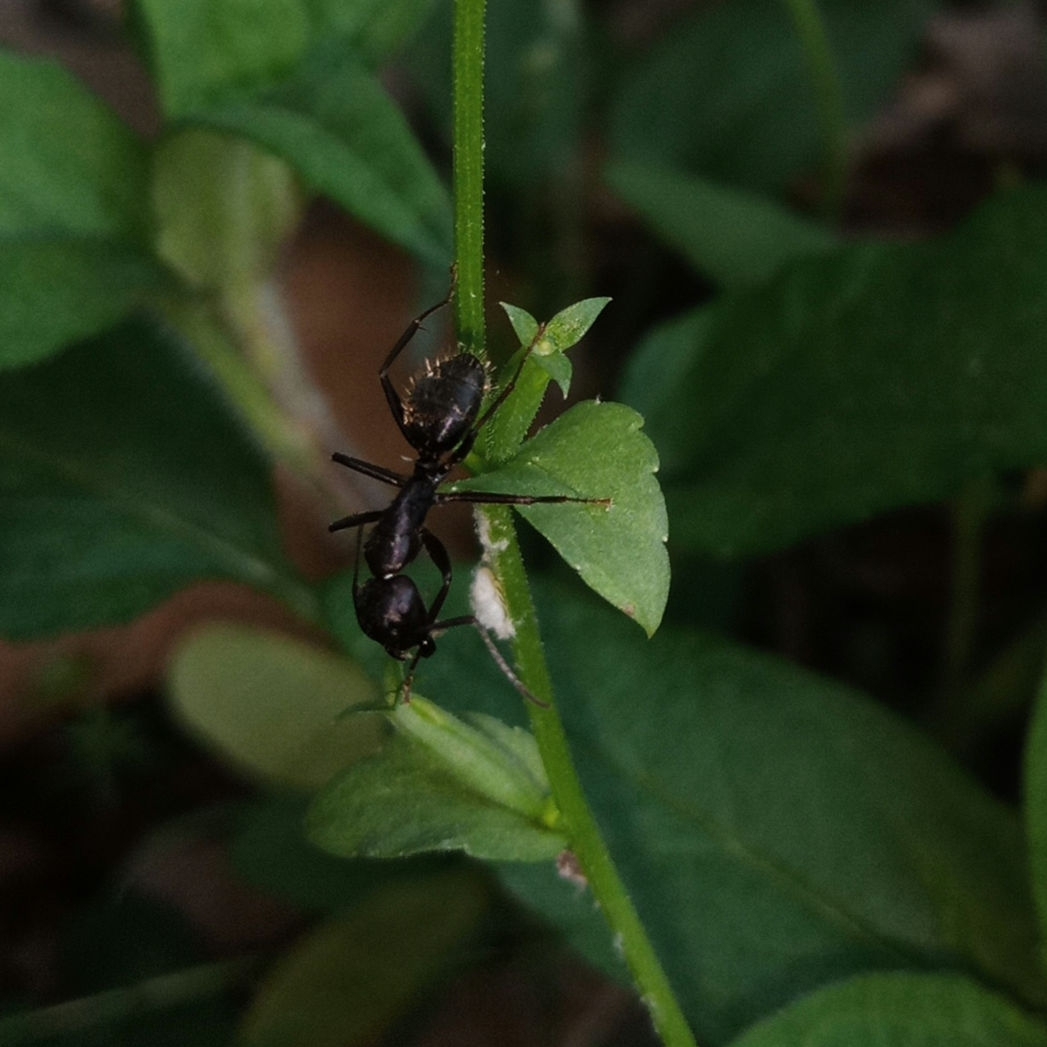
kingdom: Animalia
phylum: Arthropoda
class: Insecta
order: Hymenoptera
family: Formicidae
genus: Camponotus
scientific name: Camponotus pennsylvanicus
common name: Black carpenter ant
